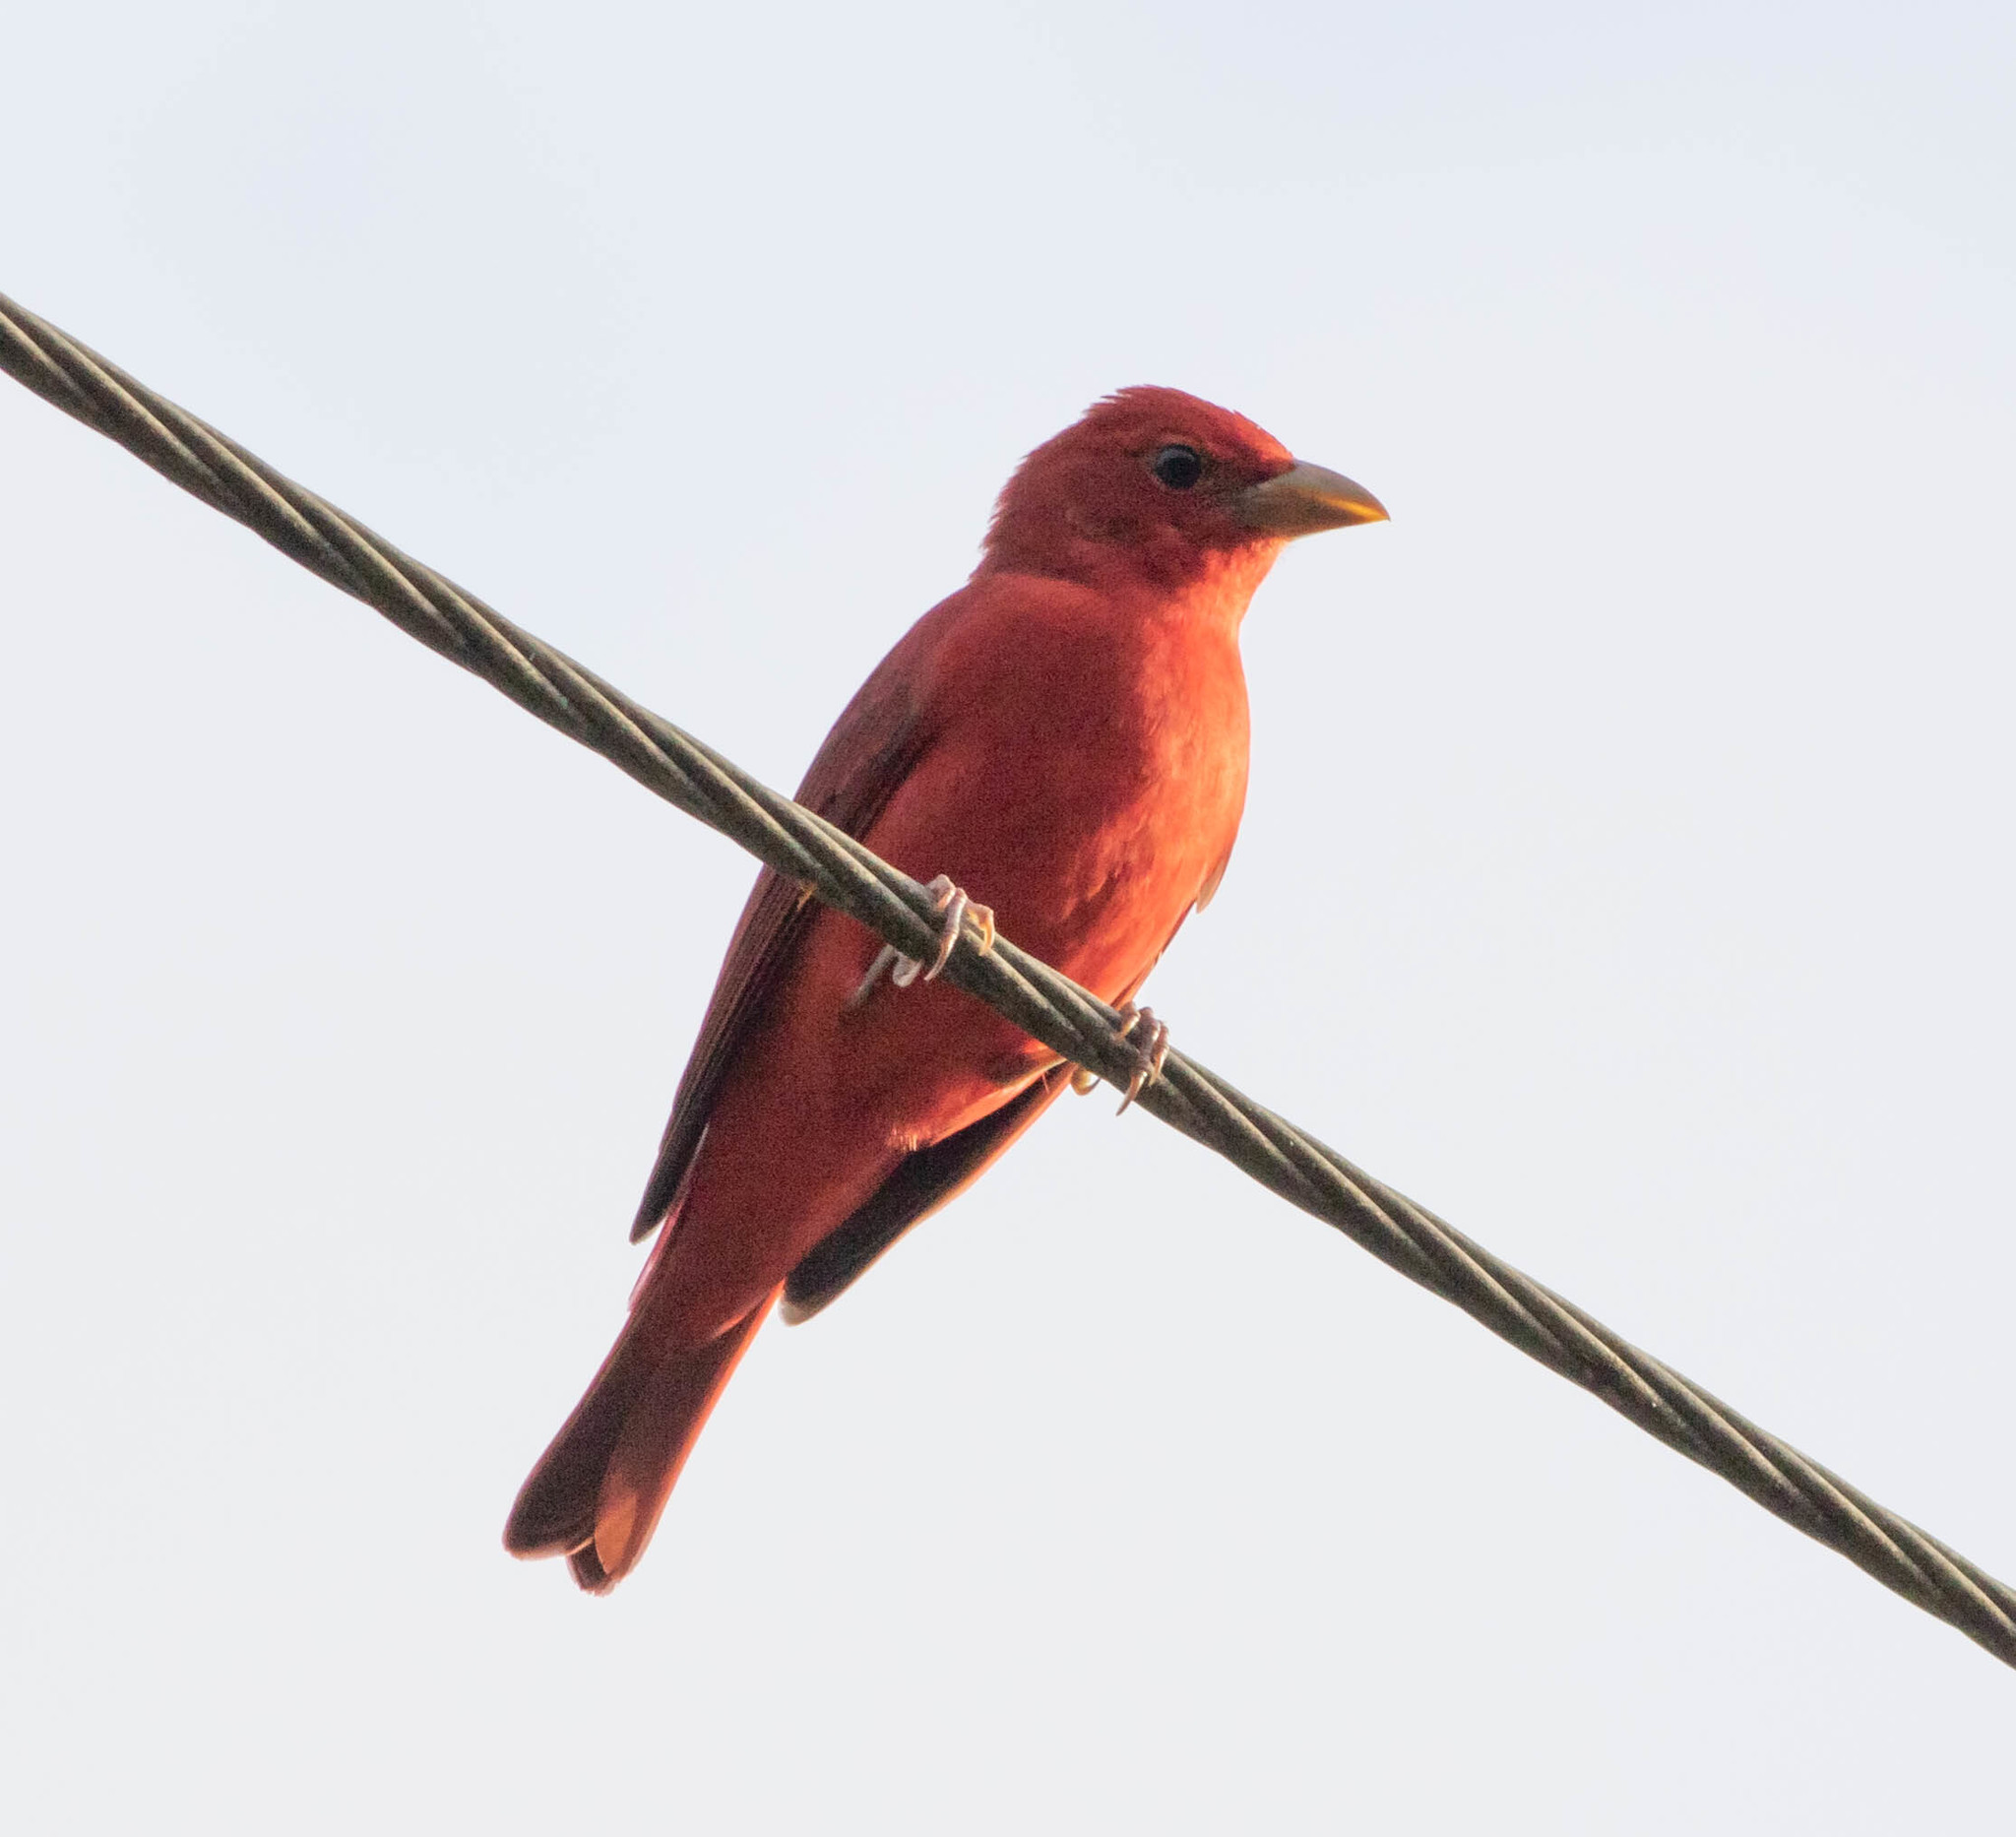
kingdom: Animalia
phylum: Chordata
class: Aves
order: Passeriformes
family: Cardinalidae
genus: Piranga
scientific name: Piranga rubra
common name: Summer tanager
